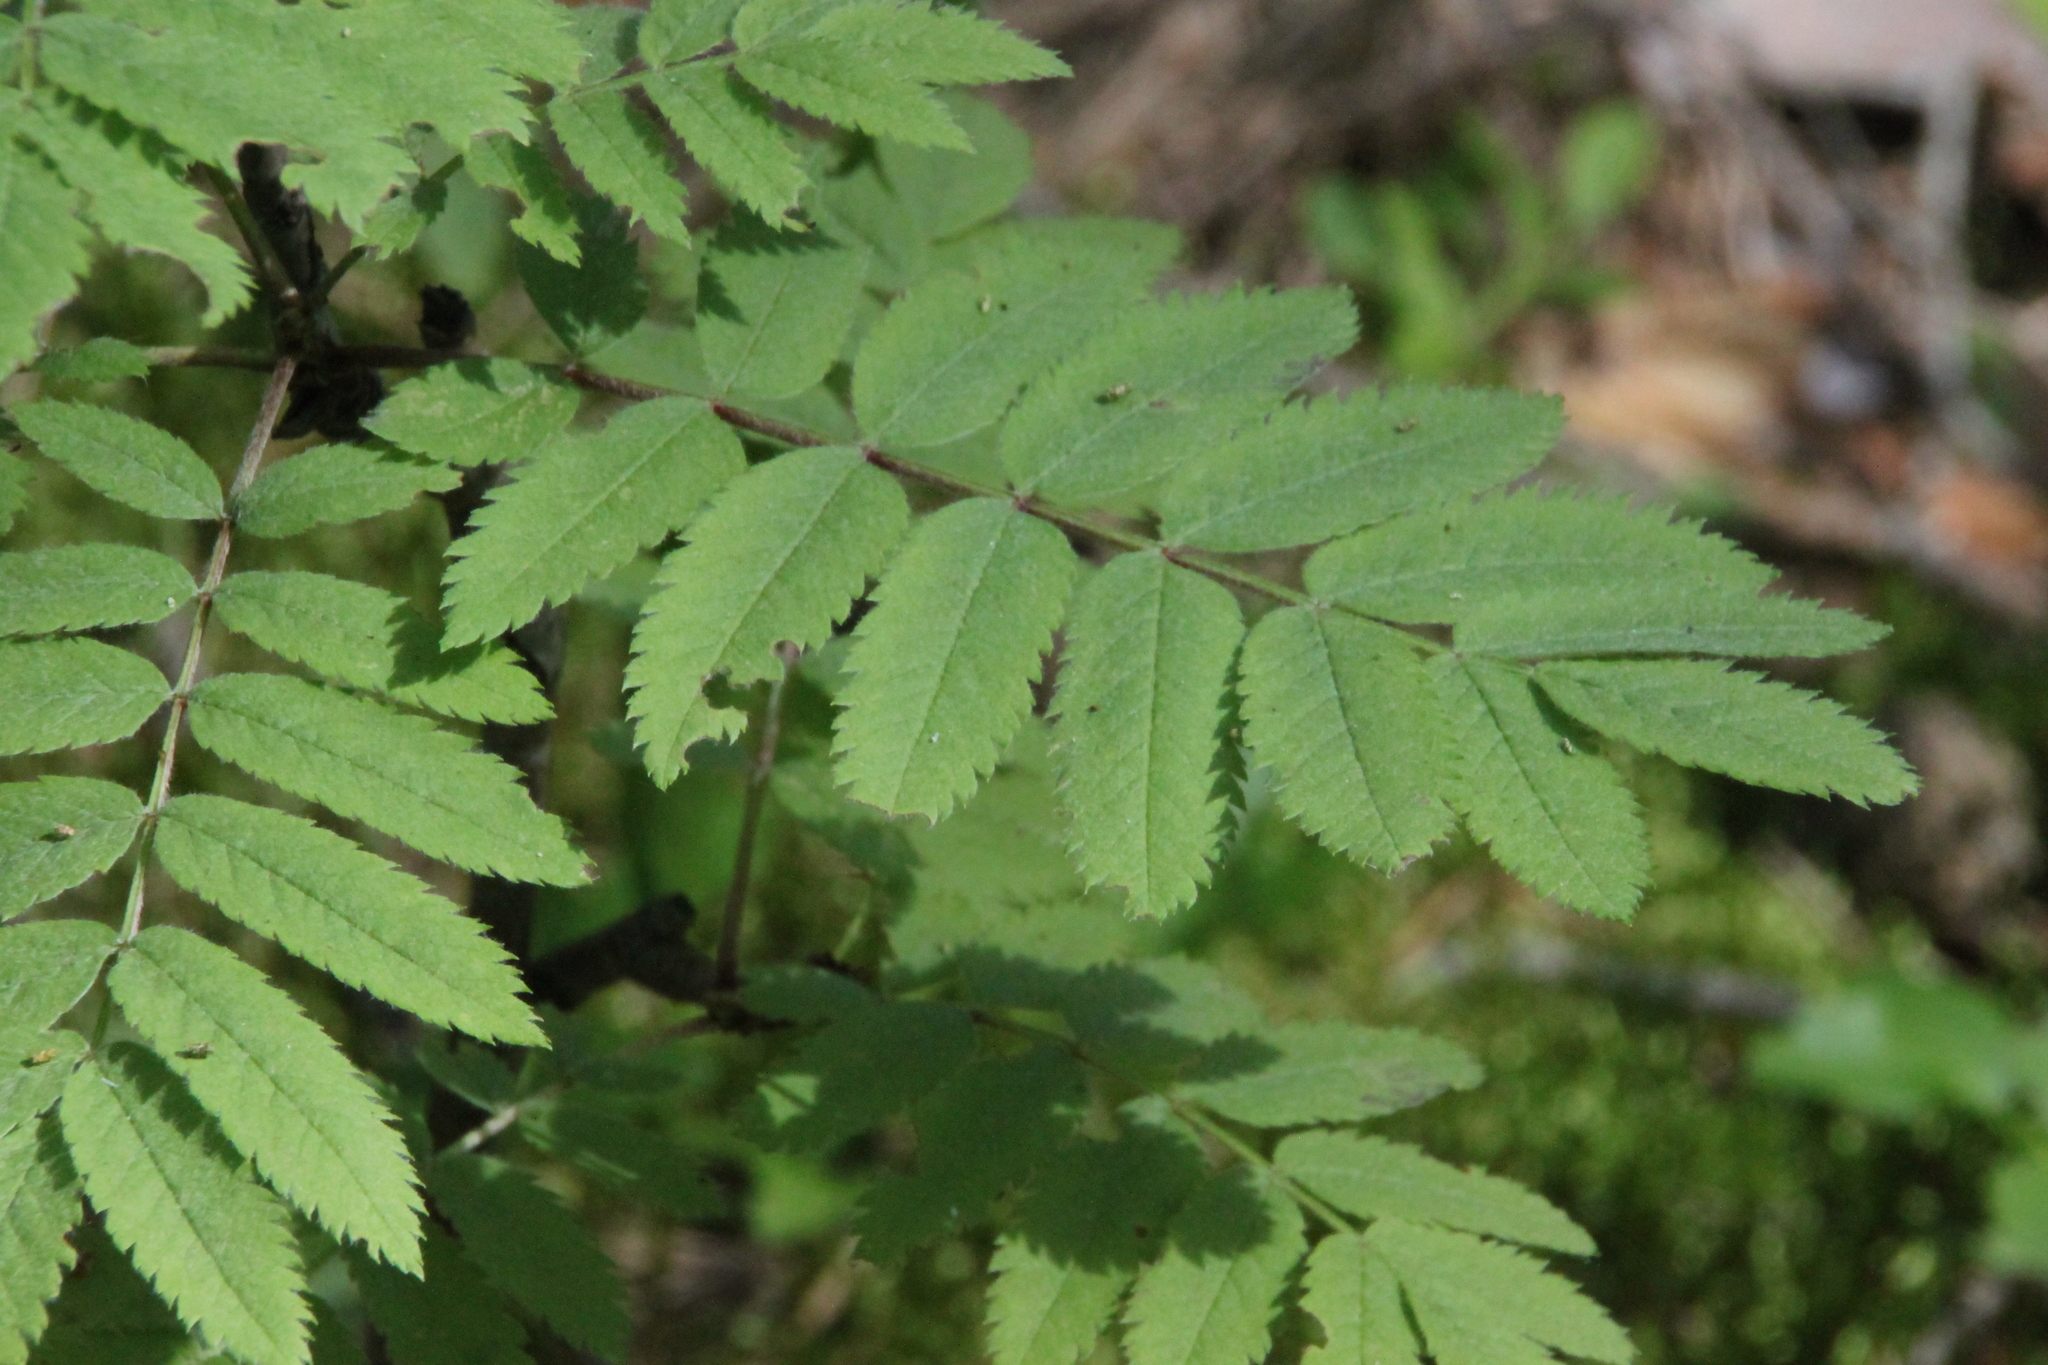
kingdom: Plantae
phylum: Tracheophyta
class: Magnoliopsida
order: Rosales
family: Rosaceae
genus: Sorbus
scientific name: Sorbus aucuparia
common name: Rowan
